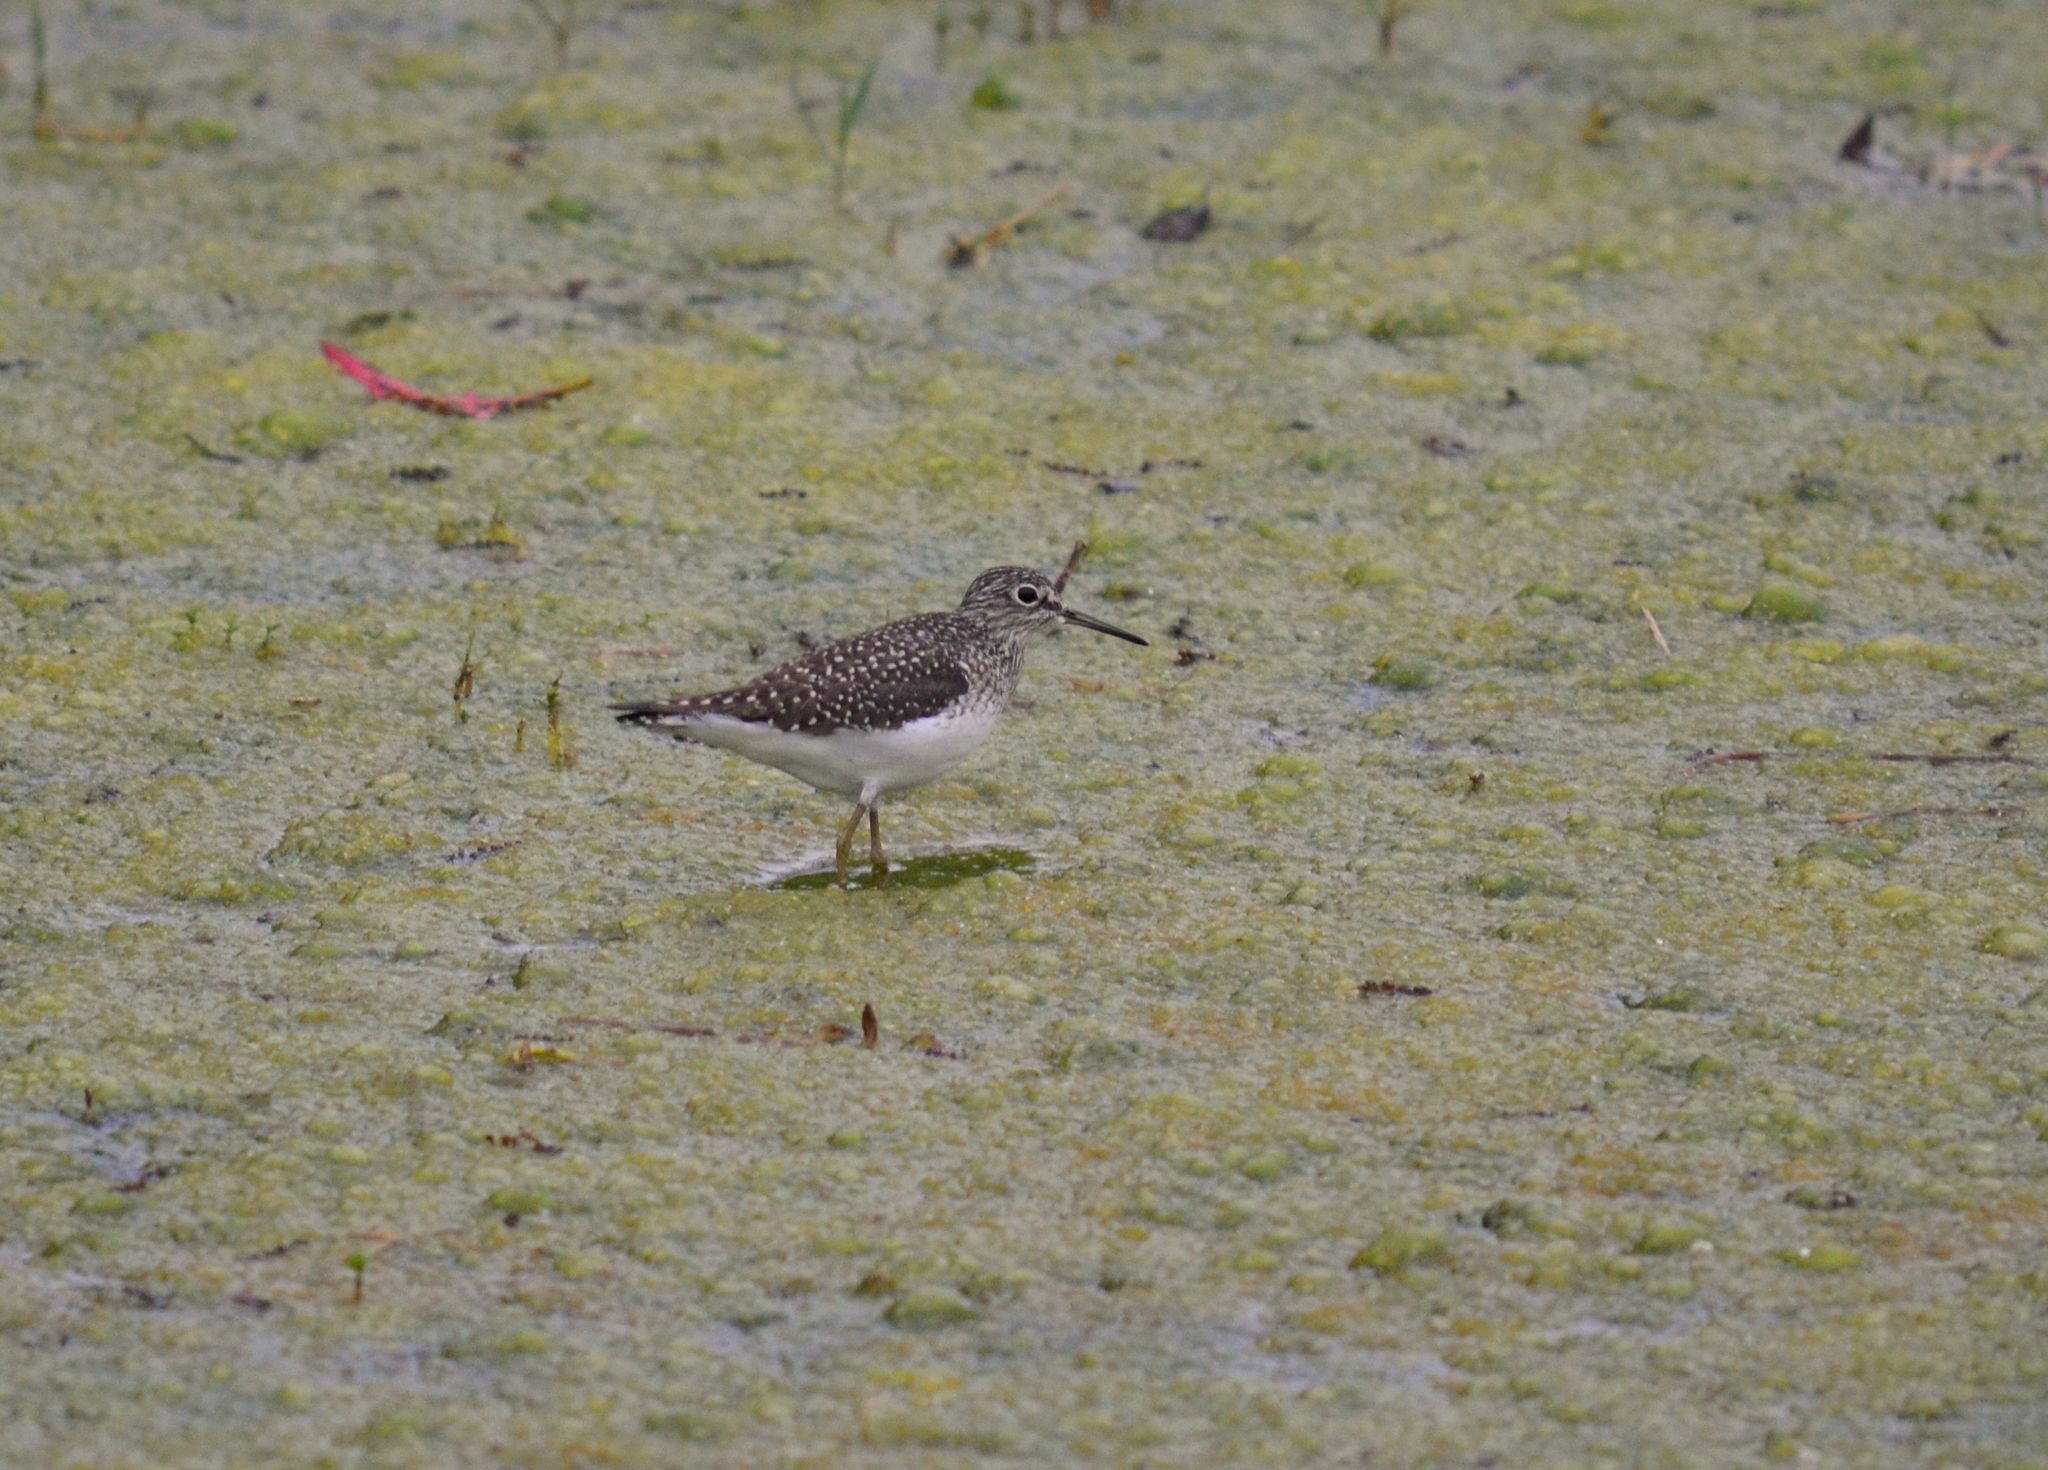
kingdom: Animalia
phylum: Chordata
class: Aves
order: Charadriiformes
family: Scolopacidae
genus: Tringa
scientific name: Tringa solitaria
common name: Solitary sandpiper
